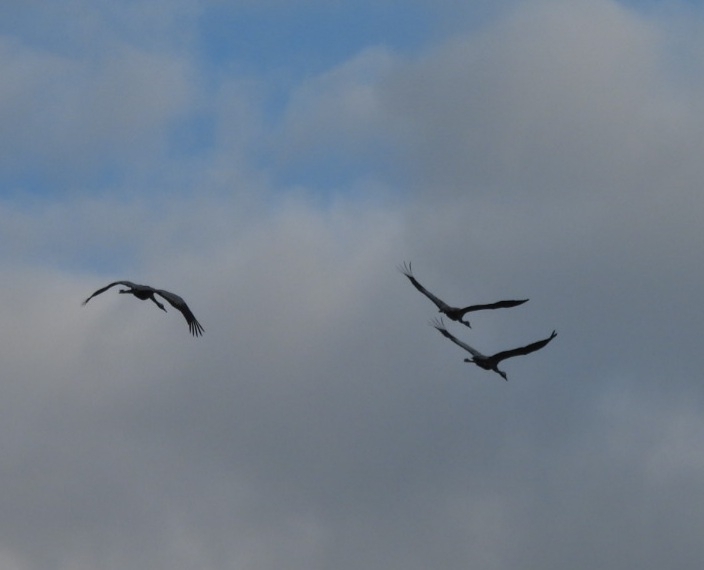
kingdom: Animalia
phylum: Chordata
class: Aves
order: Gruiformes
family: Gruidae
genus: Grus
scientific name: Grus grus
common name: Common crane
